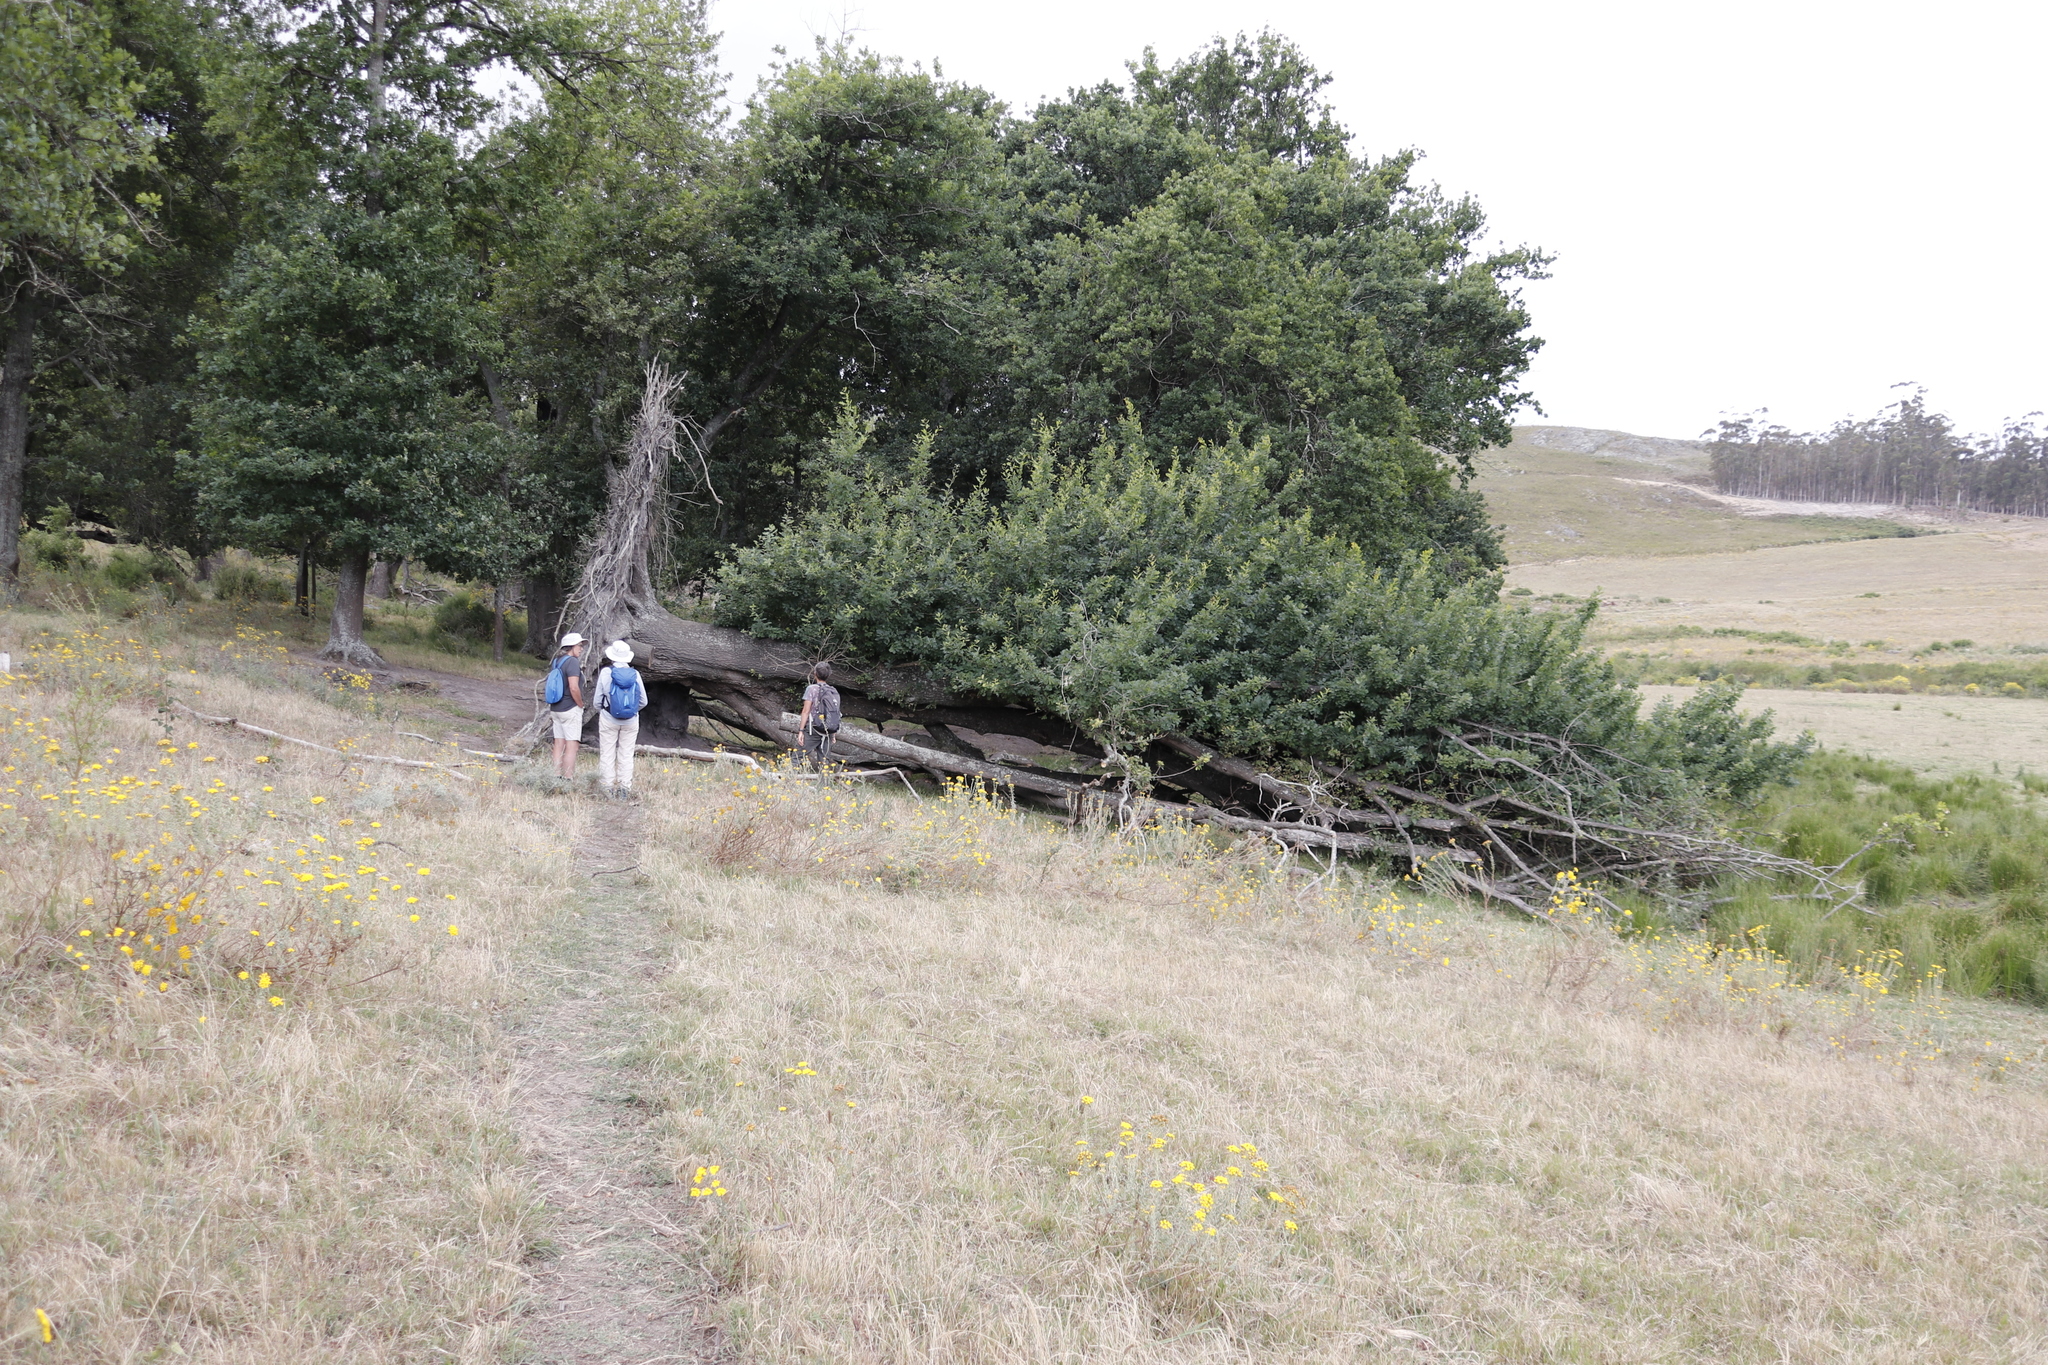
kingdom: Plantae
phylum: Tracheophyta
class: Magnoliopsida
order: Fagales
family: Fagaceae
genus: Quercus
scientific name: Quercus robur
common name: Pedunculate oak
